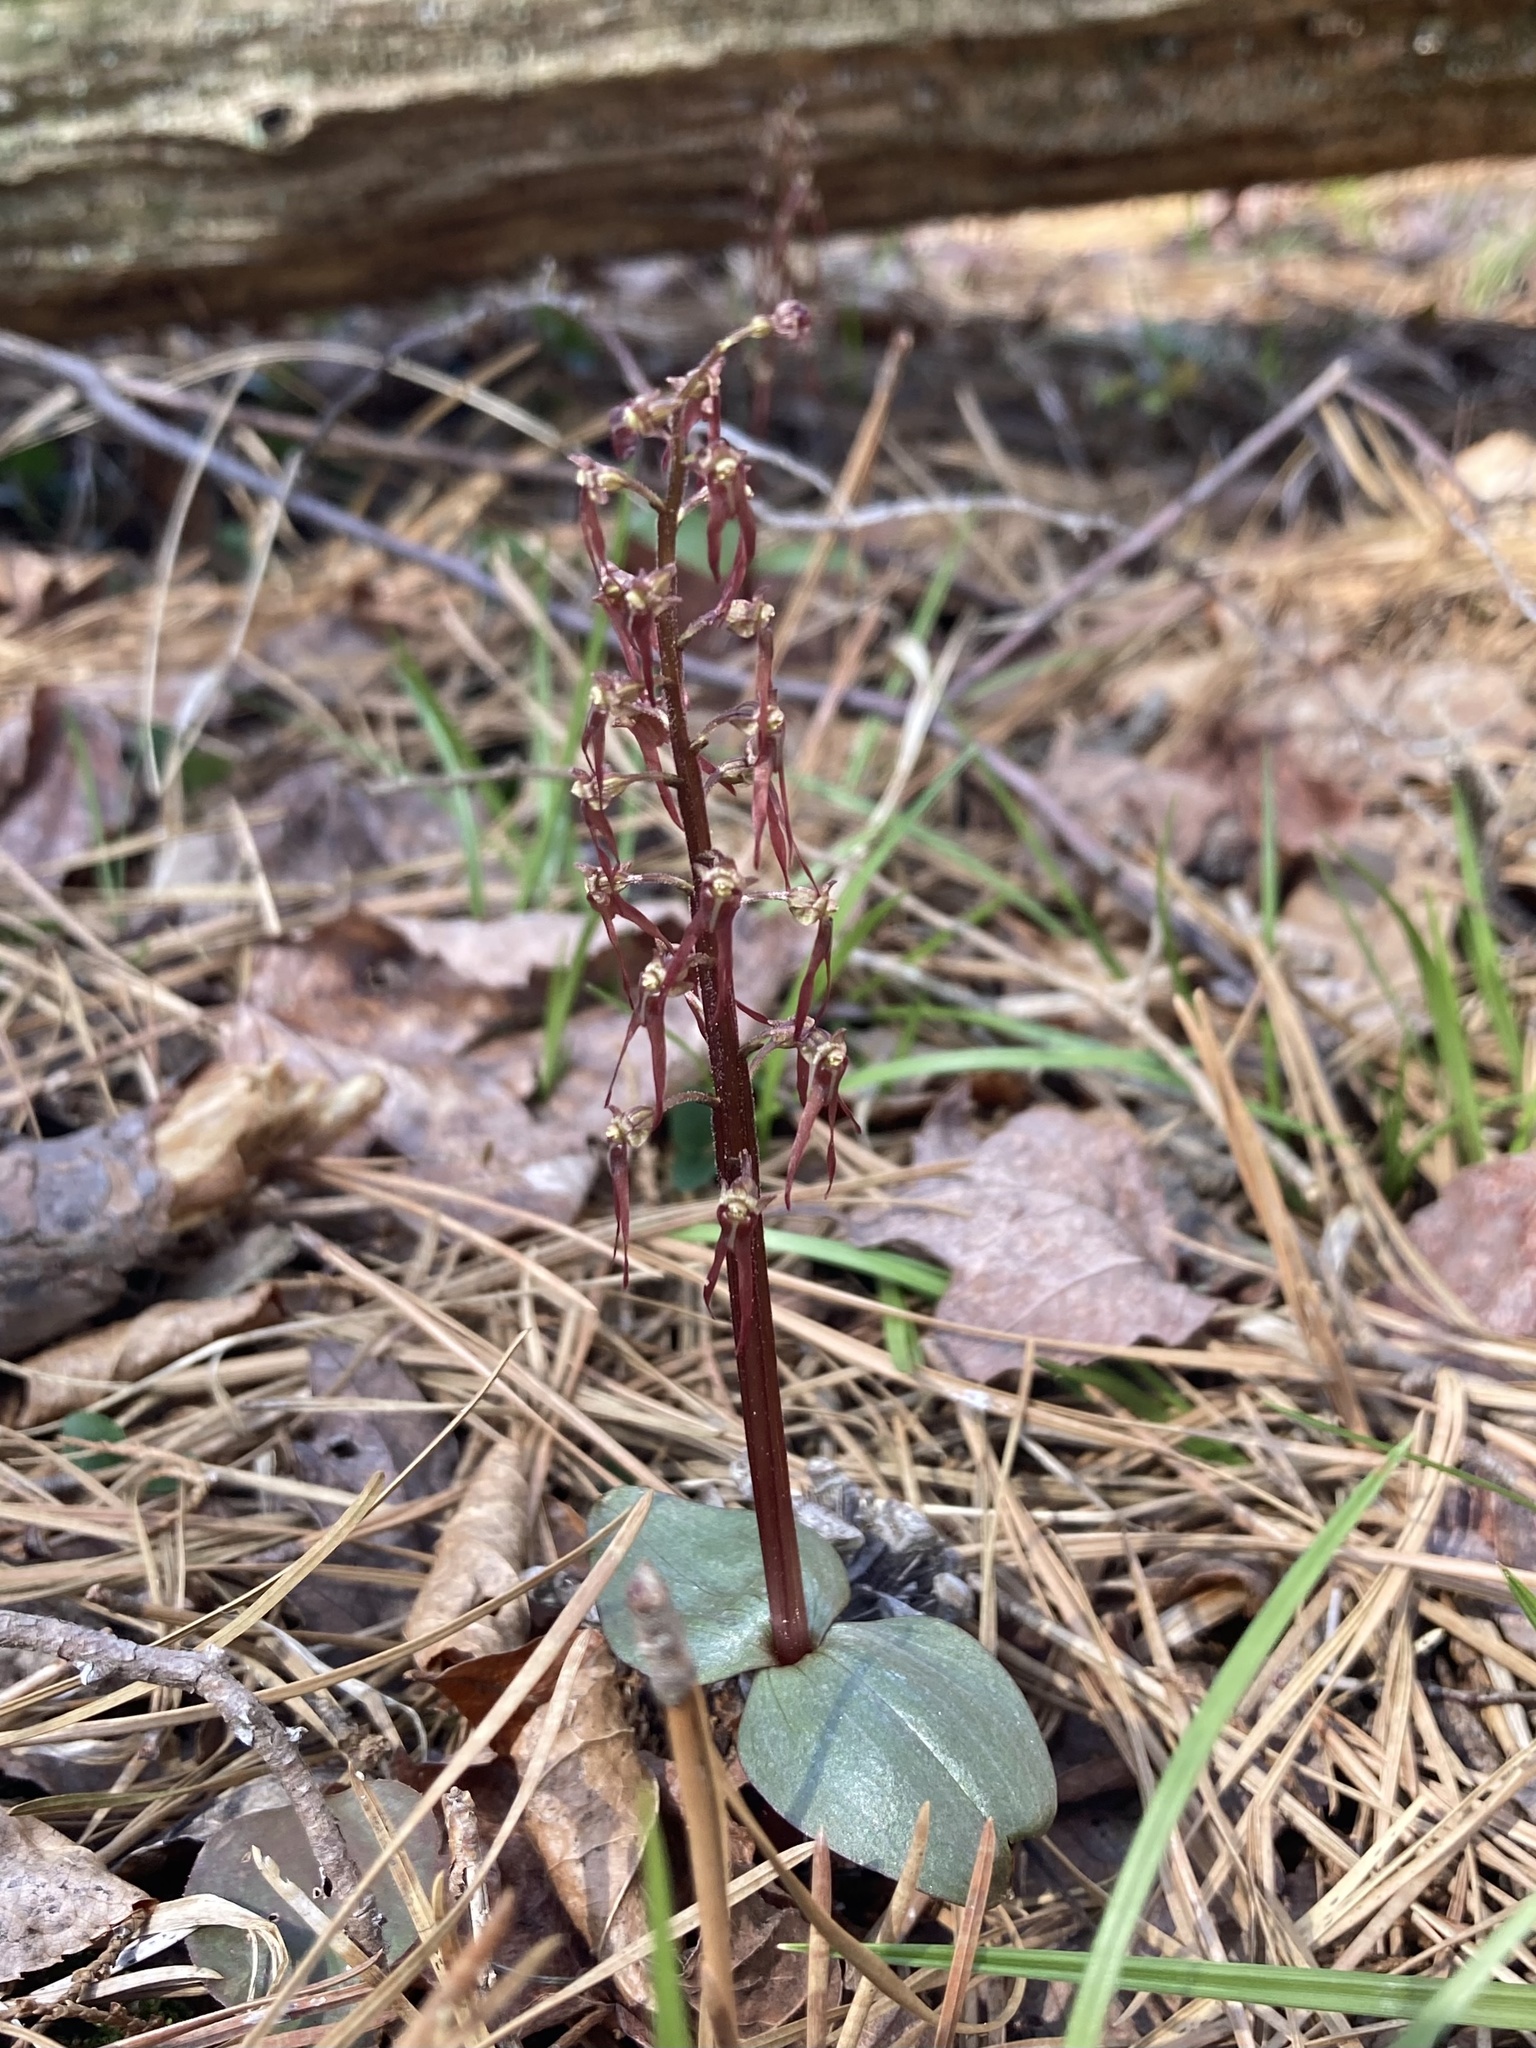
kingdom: Plantae
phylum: Tracheophyta
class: Liliopsida
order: Asparagales
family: Orchidaceae
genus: Neottia
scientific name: Neottia bifolia
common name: Southern twayblade
